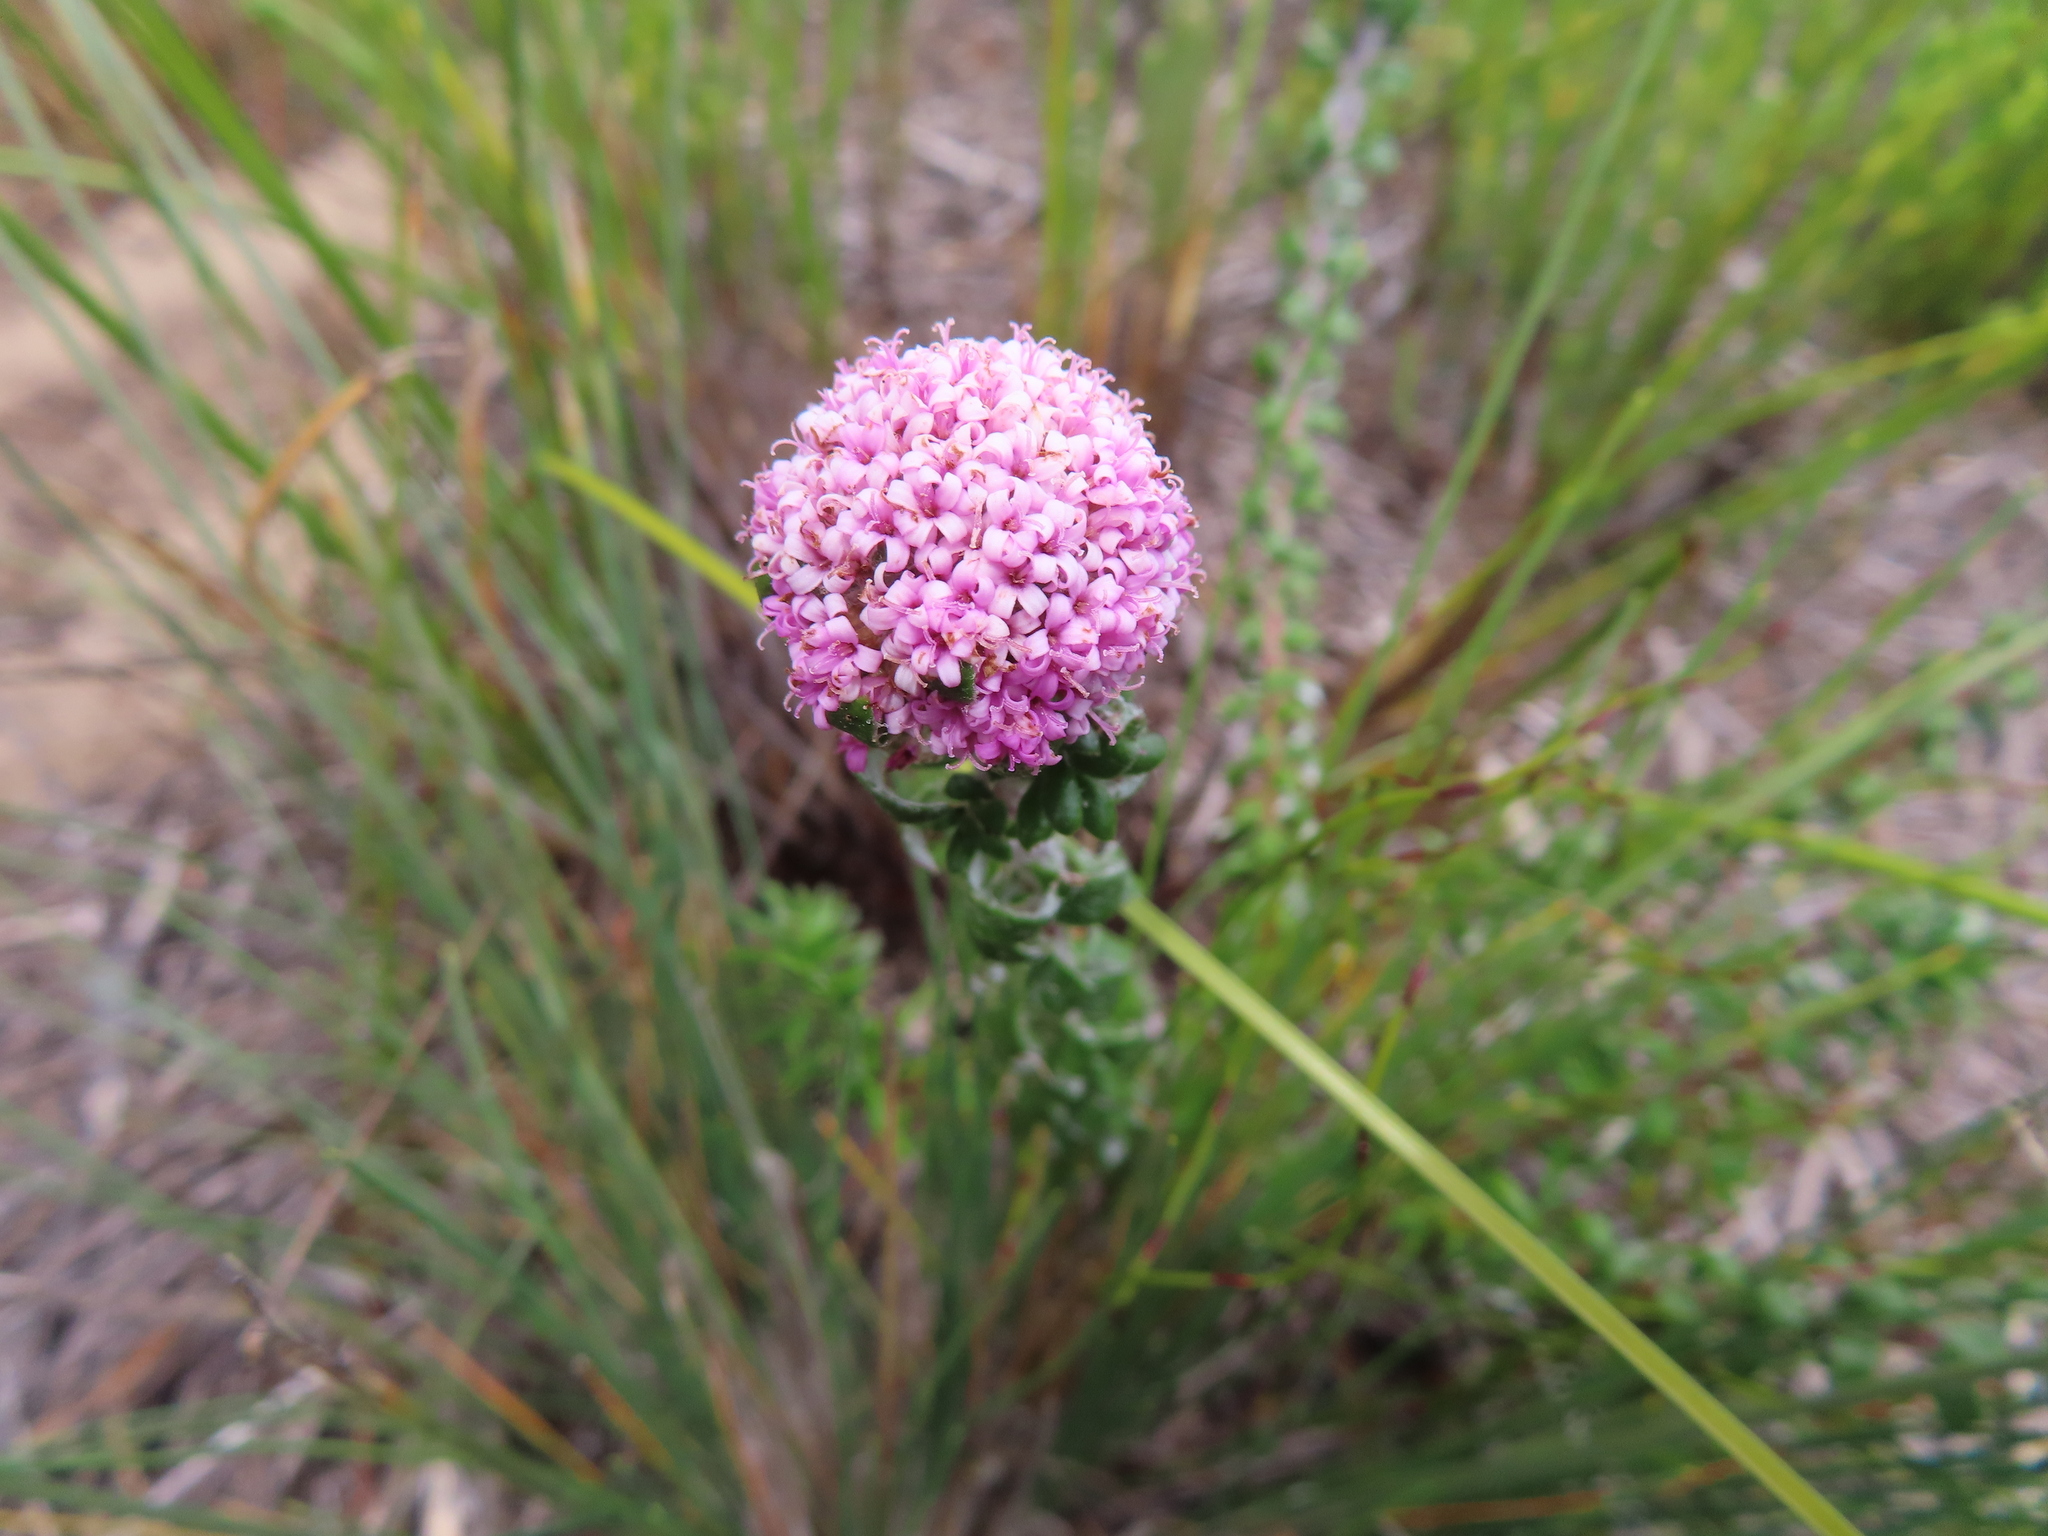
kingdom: Plantae
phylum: Tracheophyta
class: Magnoliopsida
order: Asterales
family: Asteraceae
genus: Stoebe
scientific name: Stoebe cyathuloides
